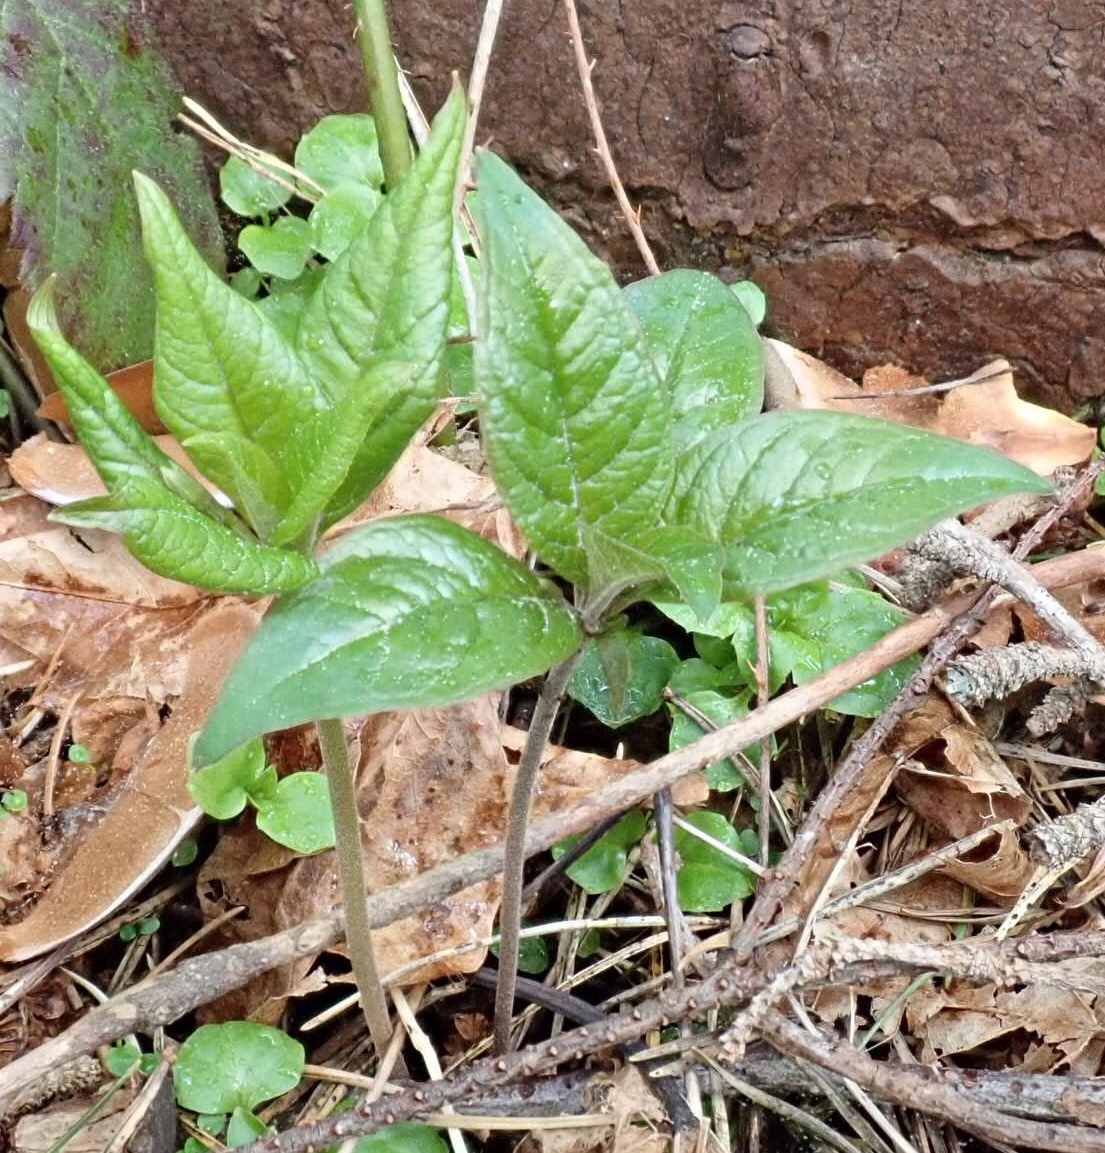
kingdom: Plantae
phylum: Tracheophyta
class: Magnoliopsida
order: Ericales
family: Primulaceae
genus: Lysimachia
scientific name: Lysimachia latifolia
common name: Pacific starflower
